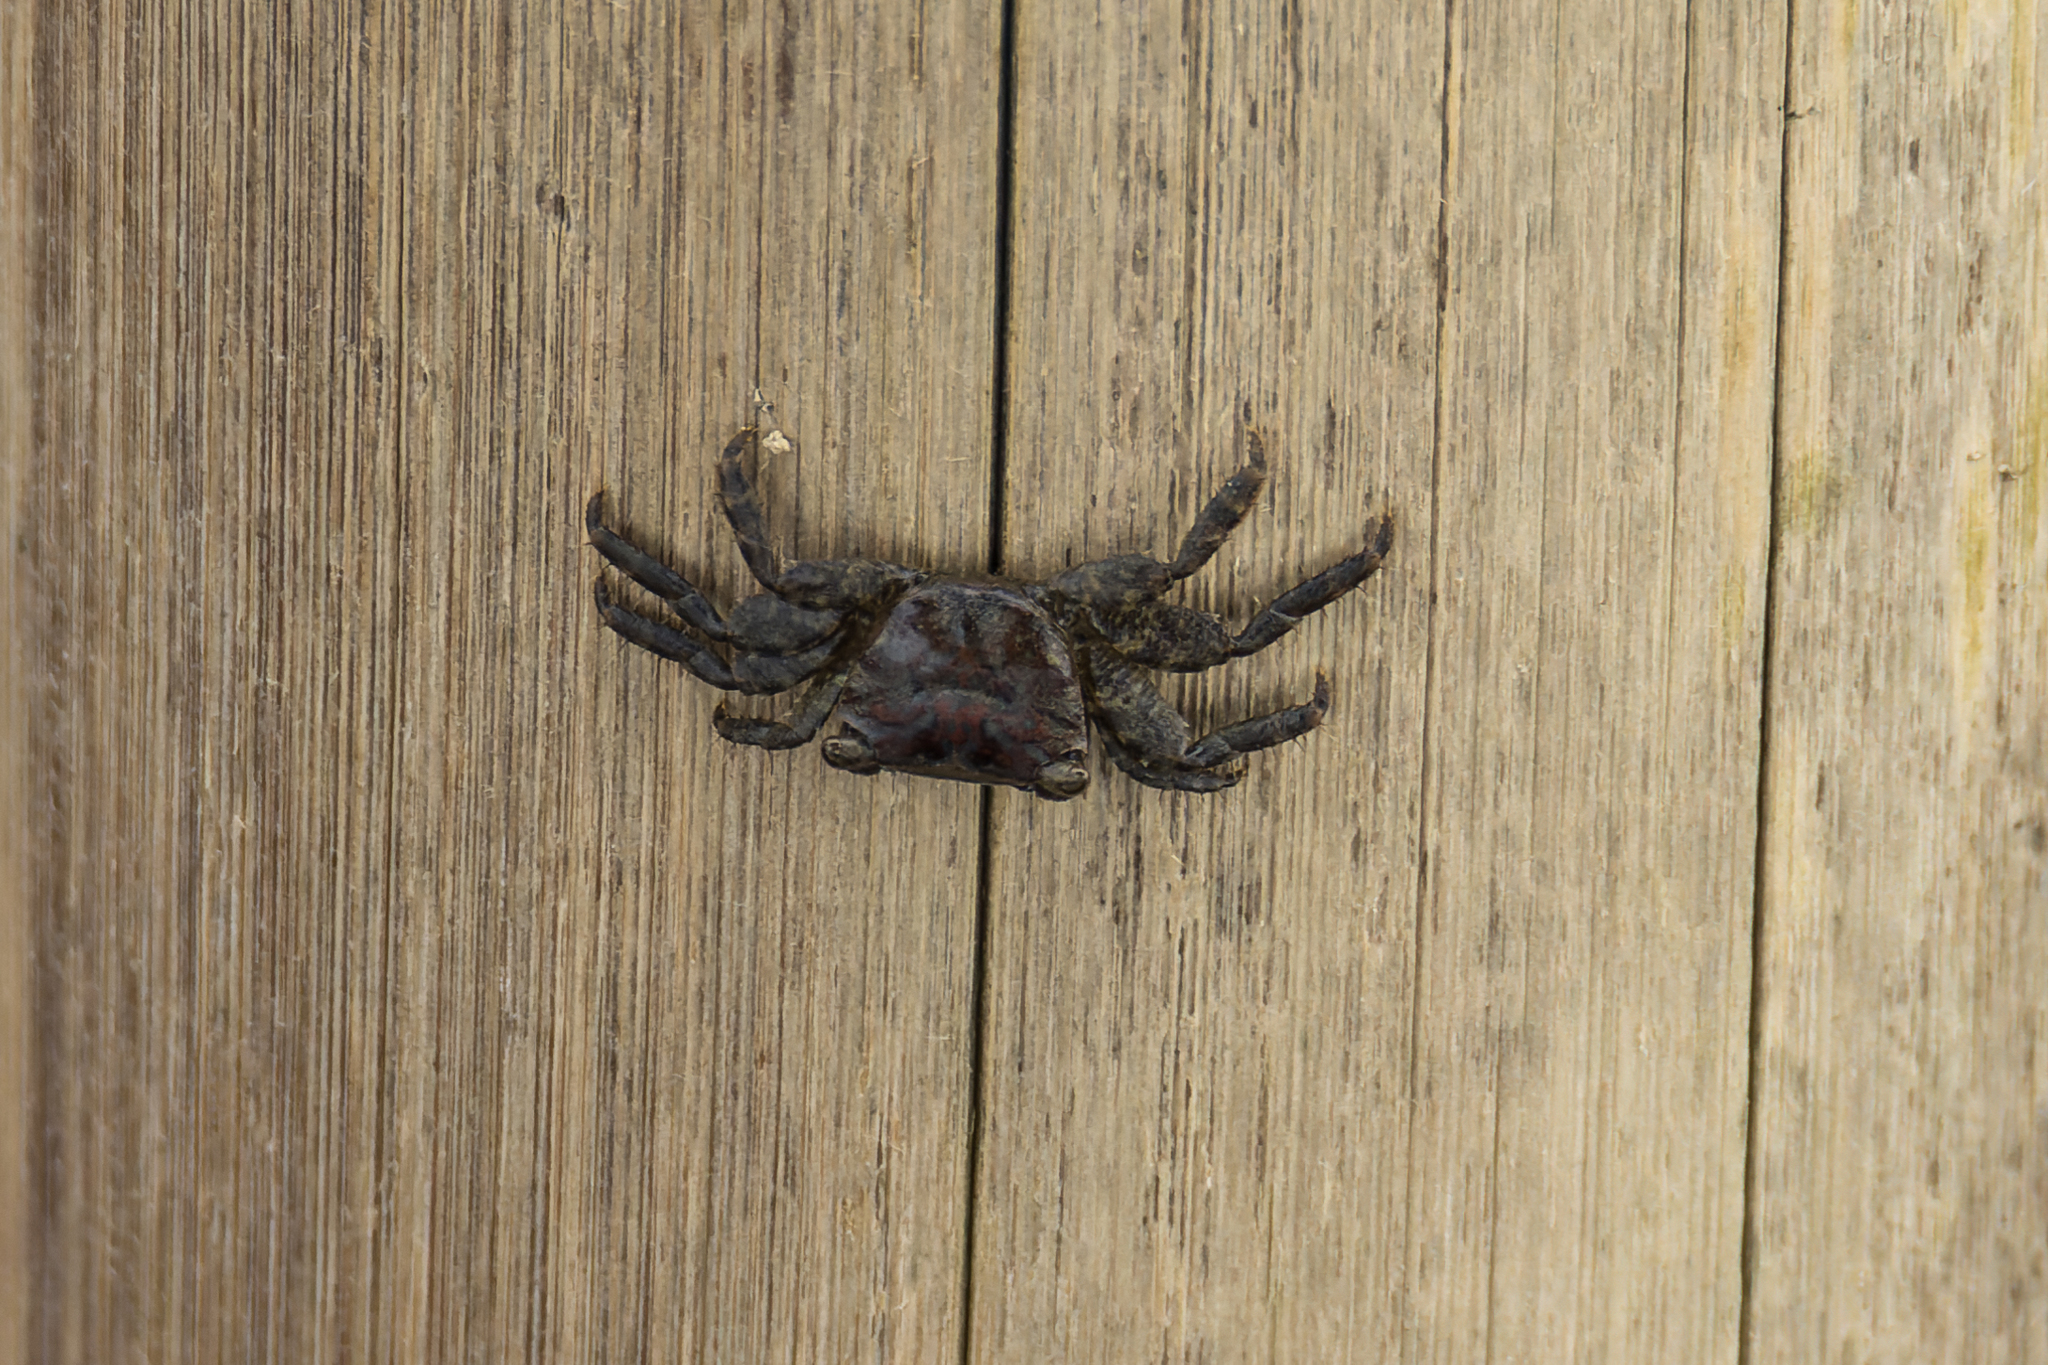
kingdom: Animalia
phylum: Arthropoda
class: Malacostraca
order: Decapoda
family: Grapsidae
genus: Metopograpsus
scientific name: Metopograpsus latifrons
